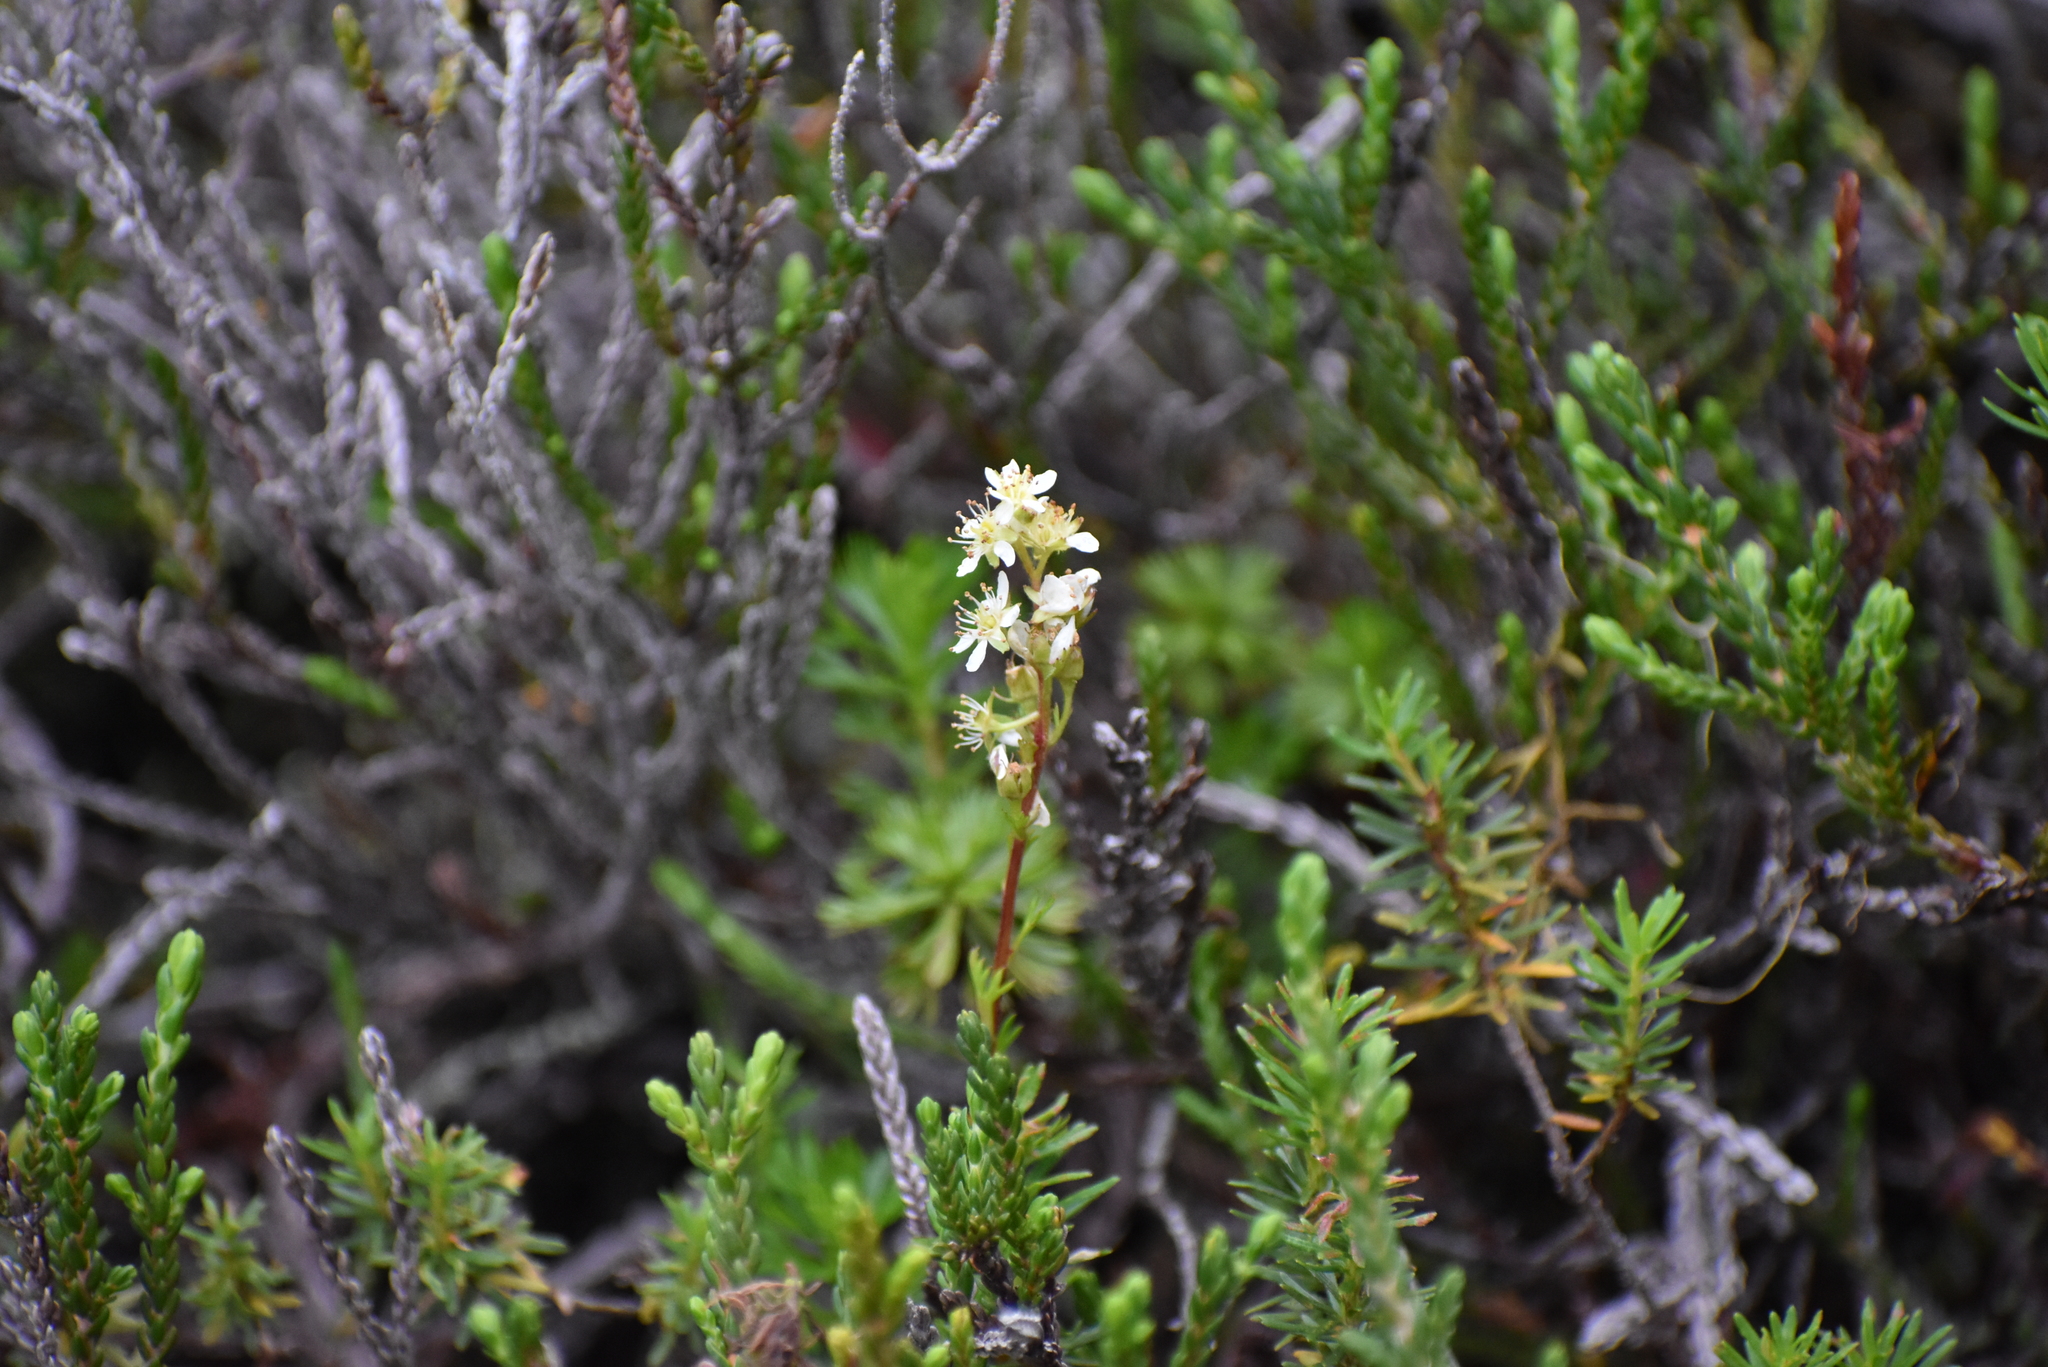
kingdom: Plantae
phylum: Tracheophyta
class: Magnoliopsida
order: Rosales
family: Rosaceae
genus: Luetkea
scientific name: Luetkea pectinata
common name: Partridgefoot
